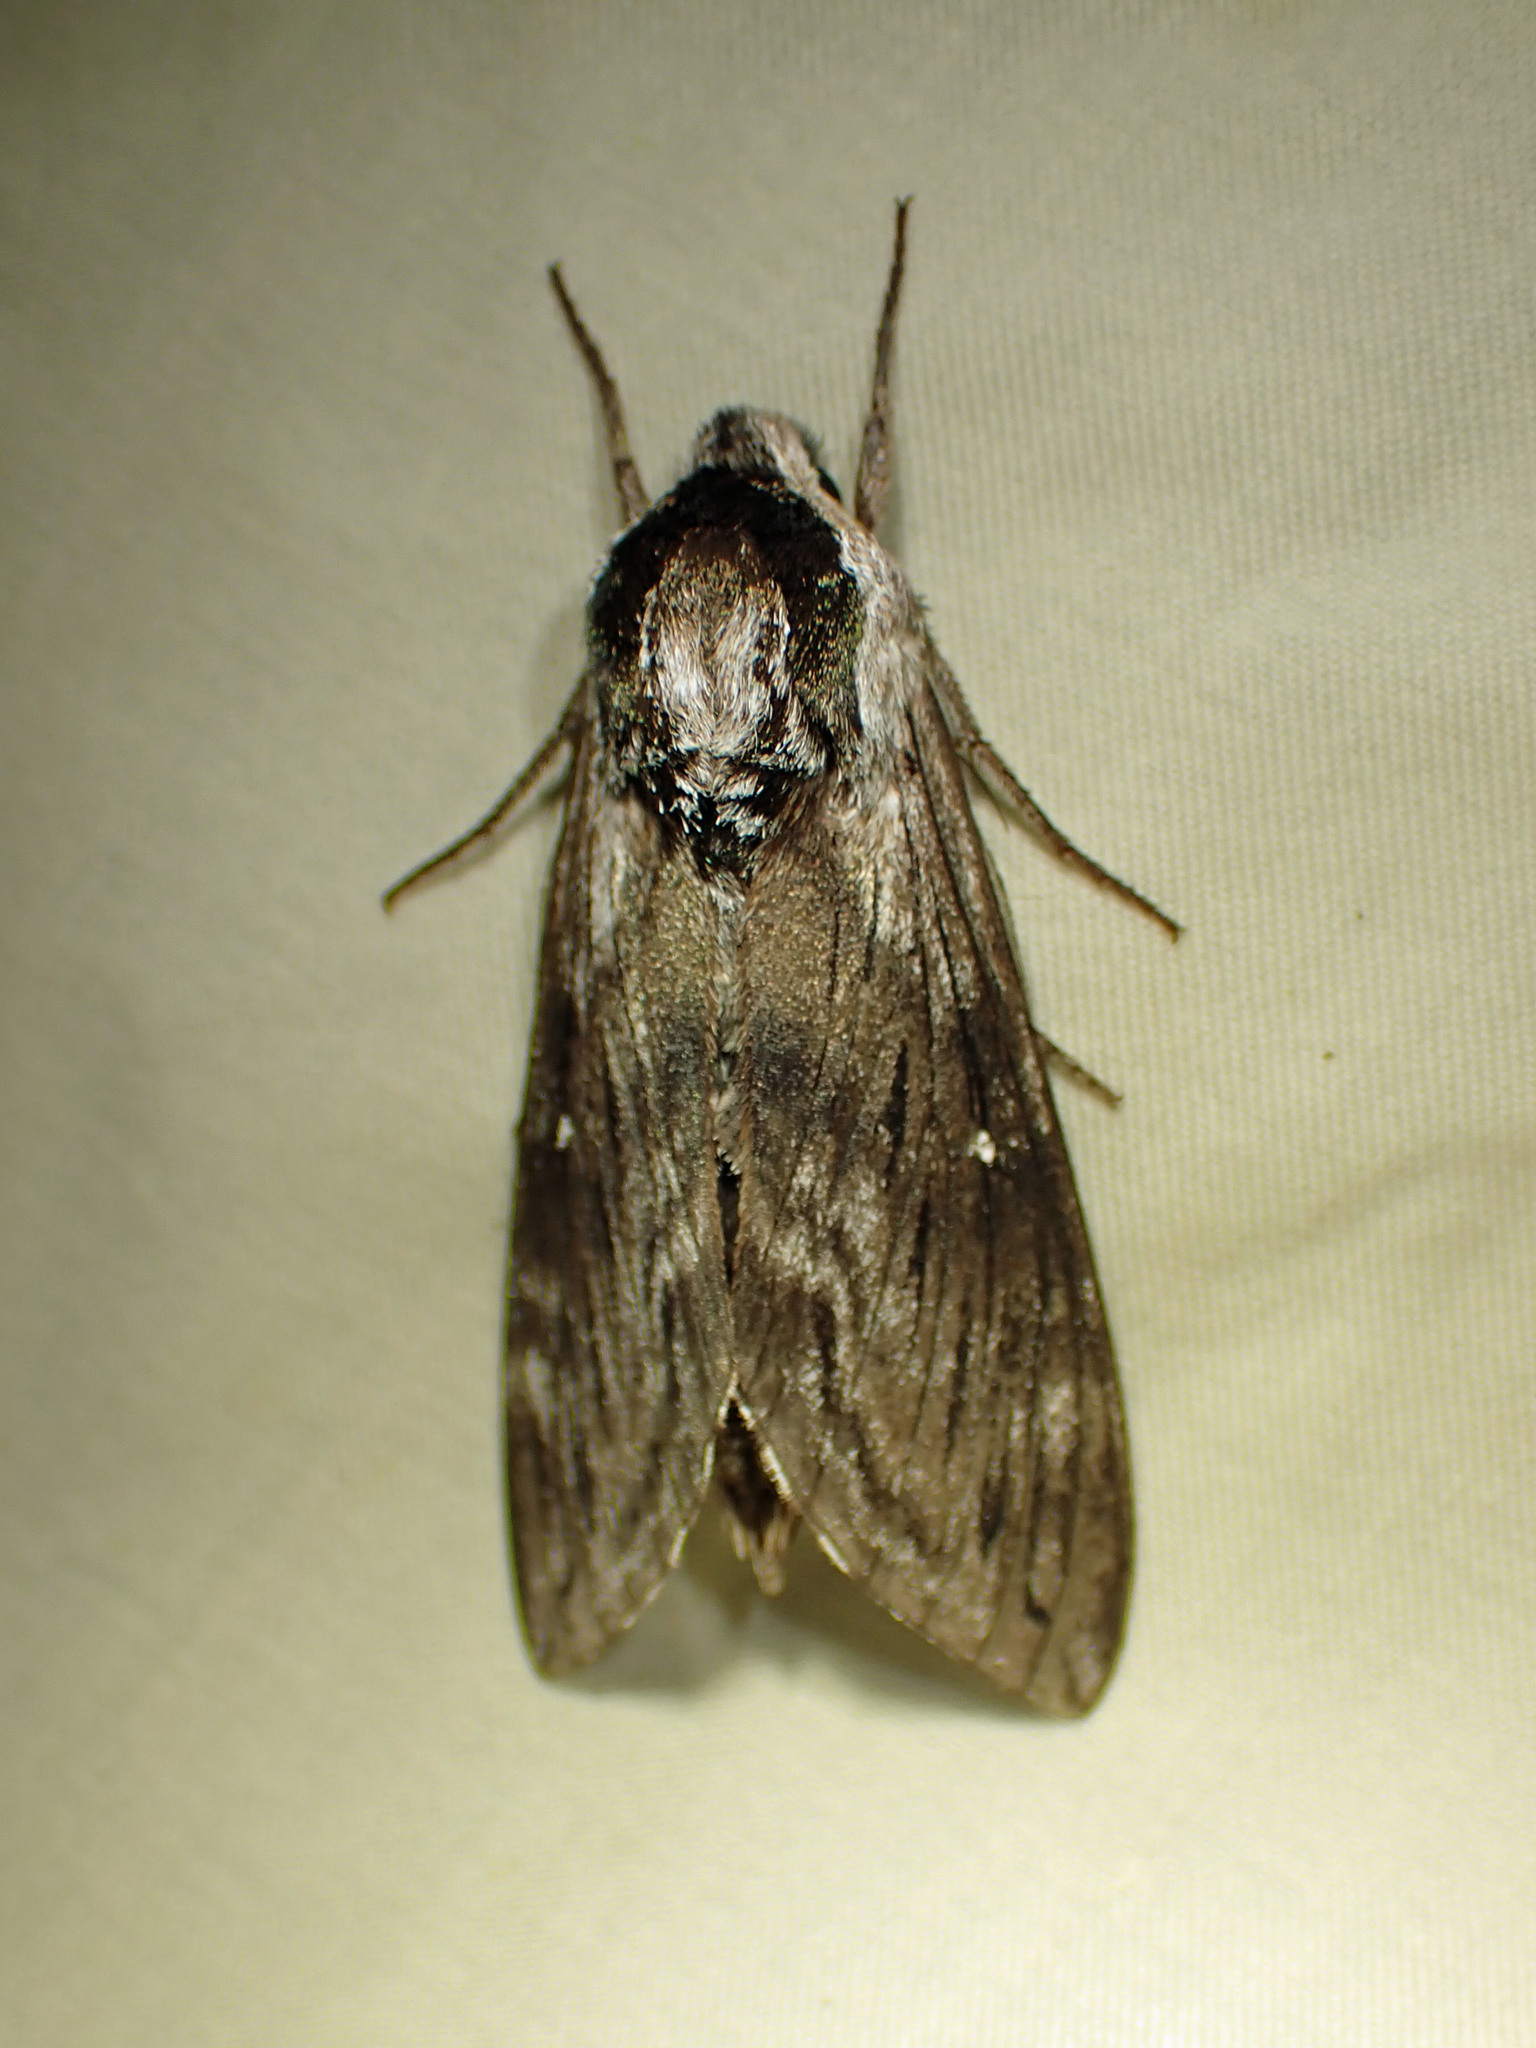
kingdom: Animalia
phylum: Arthropoda
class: Insecta
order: Lepidoptera
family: Sphingidae
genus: Sphinx
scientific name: Sphinx poecila
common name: Northern apple sphinx
